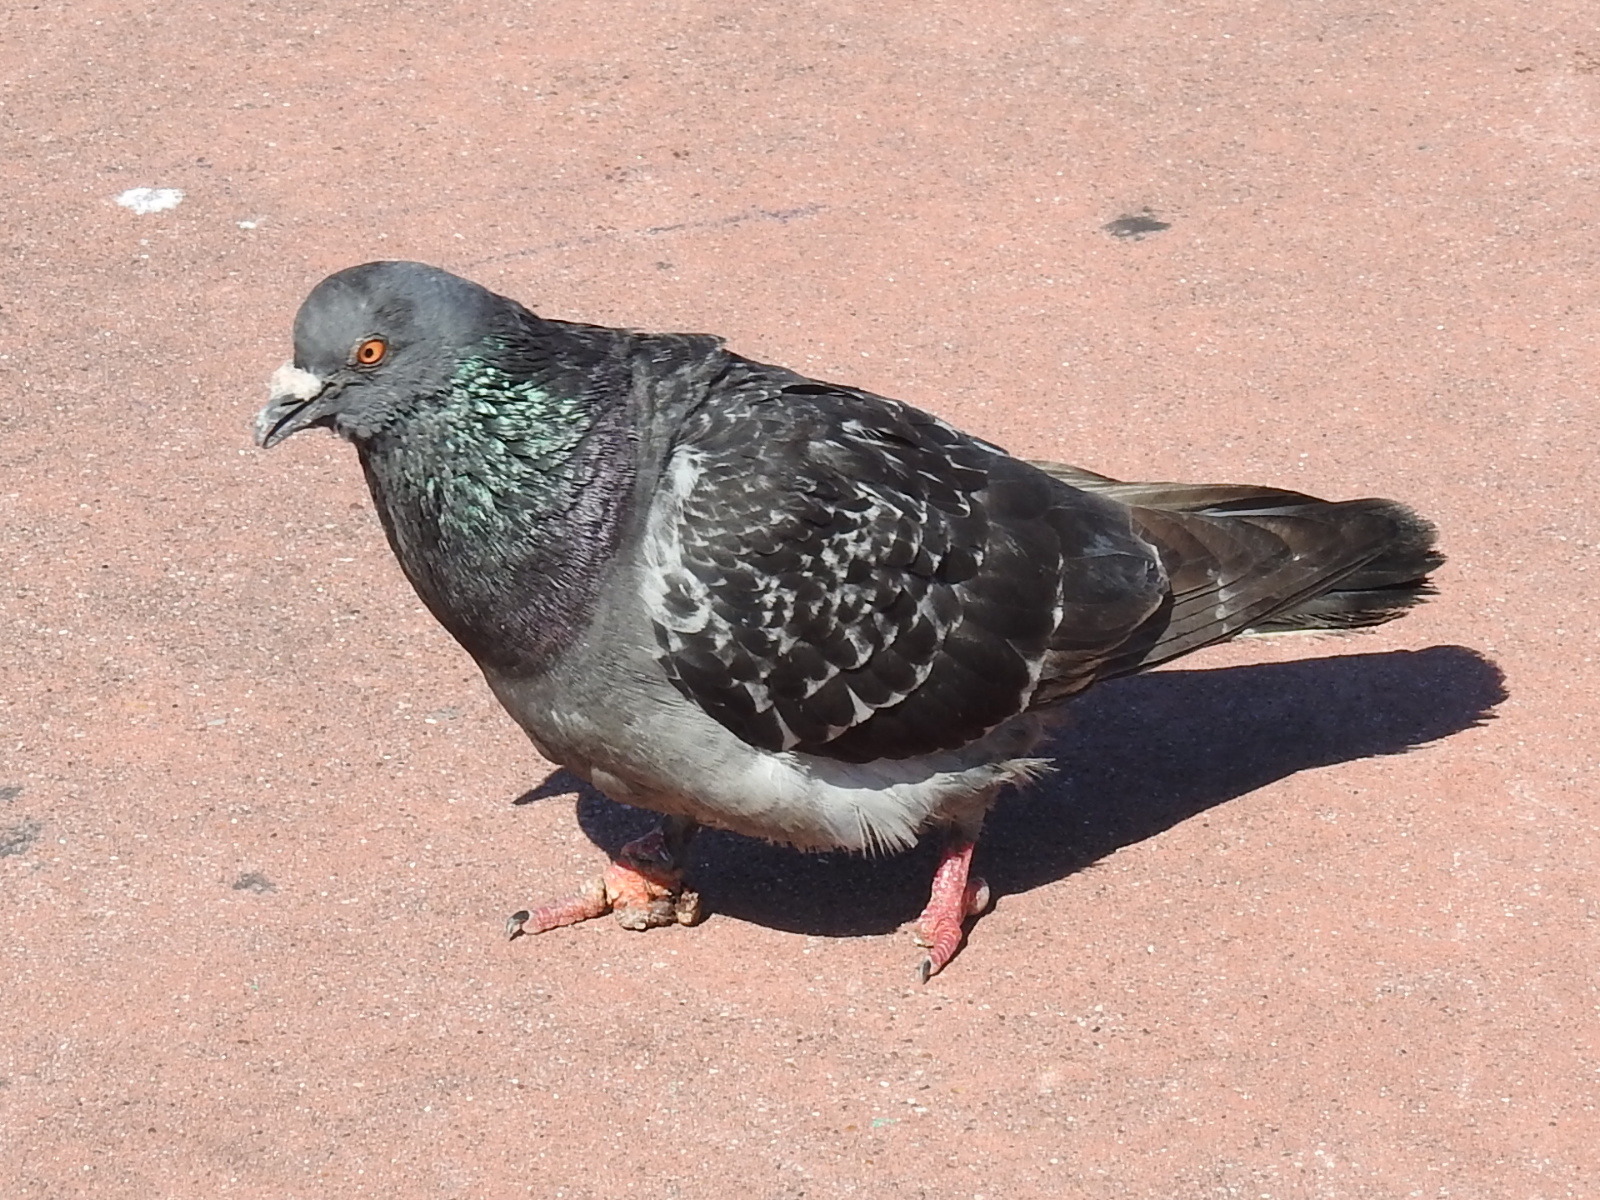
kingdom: Animalia
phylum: Chordata
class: Aves
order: Columbiformes
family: Columbidae
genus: Columba
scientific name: Columba livia
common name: Rock pigeon
